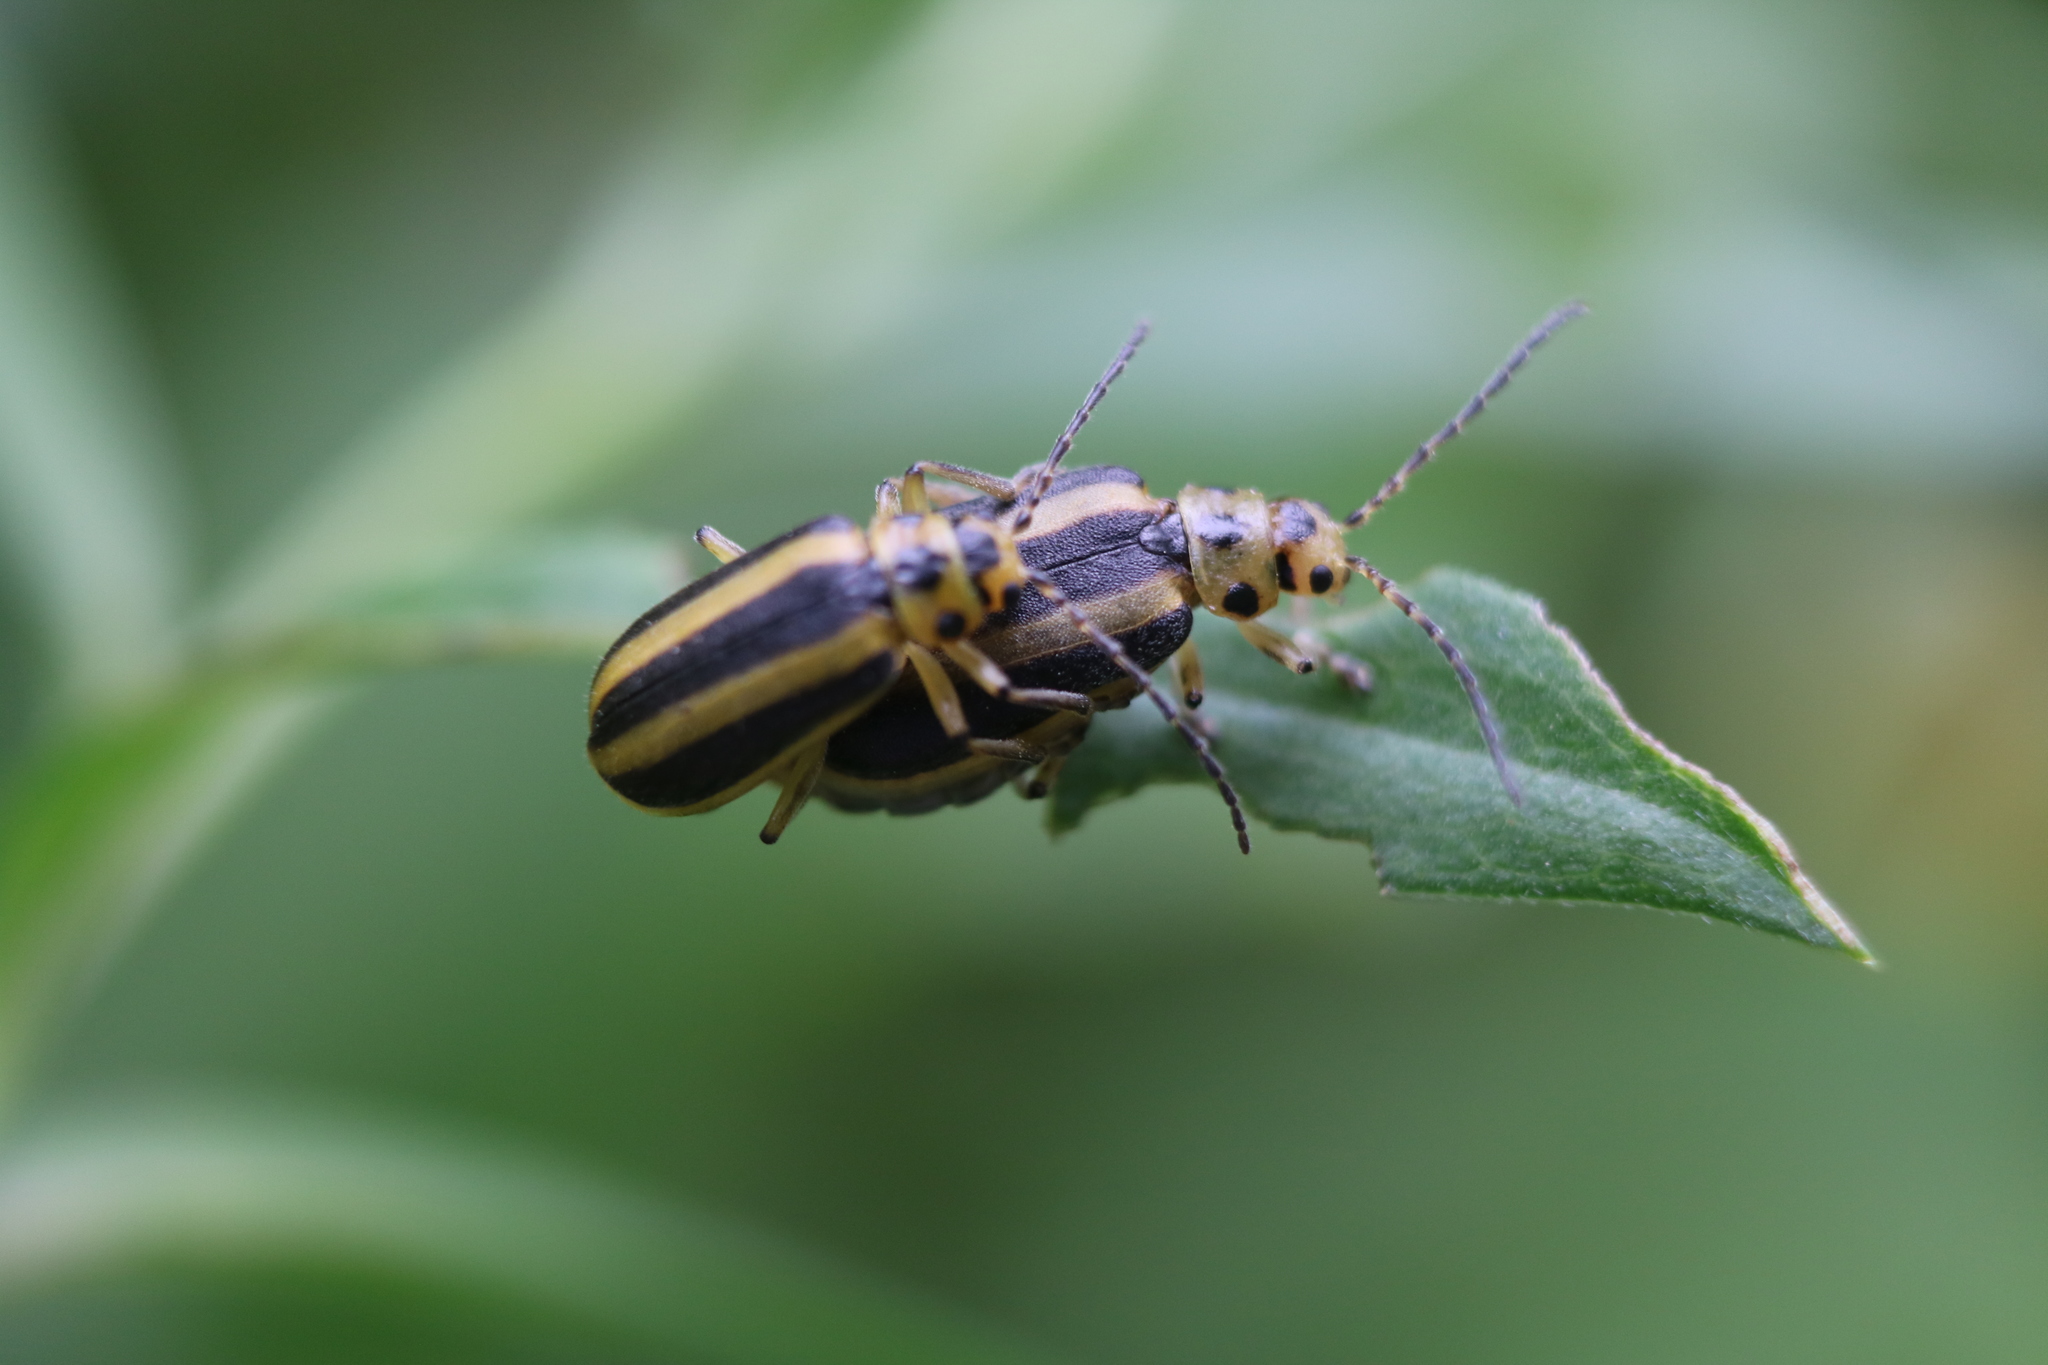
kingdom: Animalia
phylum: Arthropoda
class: Insecta
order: Coleoptera
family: Chrysomelidae
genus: Trirhabda
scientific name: Trirhabda canadensis
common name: Goldenrod leaf beetle
